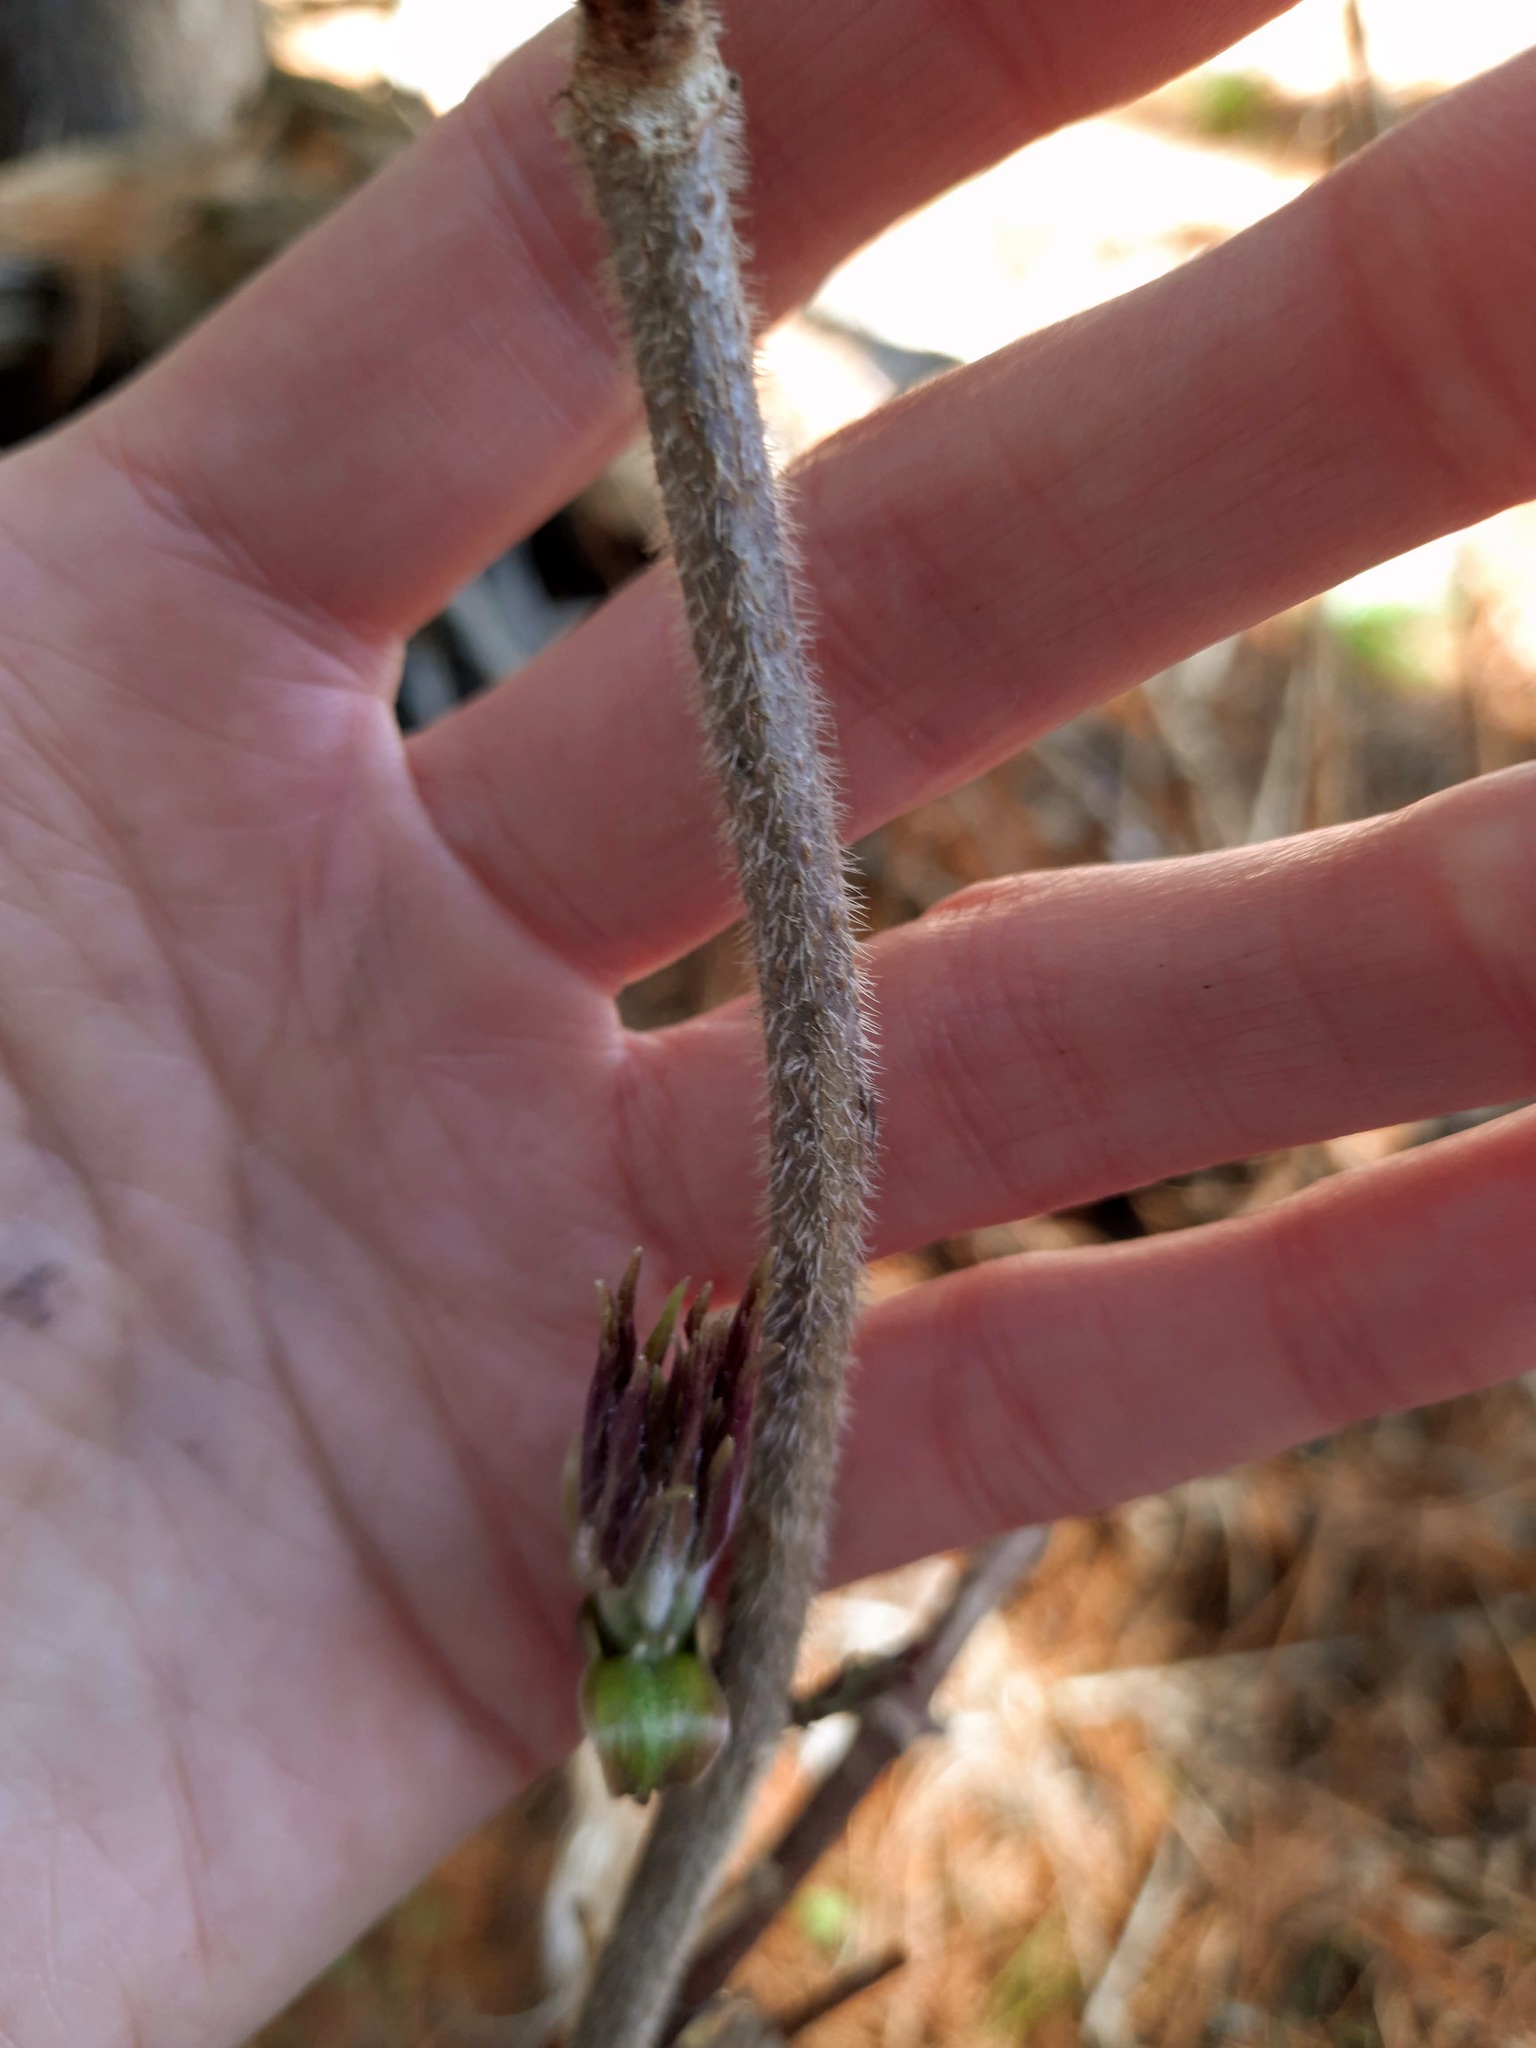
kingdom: Plantae
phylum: Tracheophyta
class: Magnoliopsida
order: Dipsacales
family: Viburnaceae
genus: Sambucus
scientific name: Sambucus sibirica
